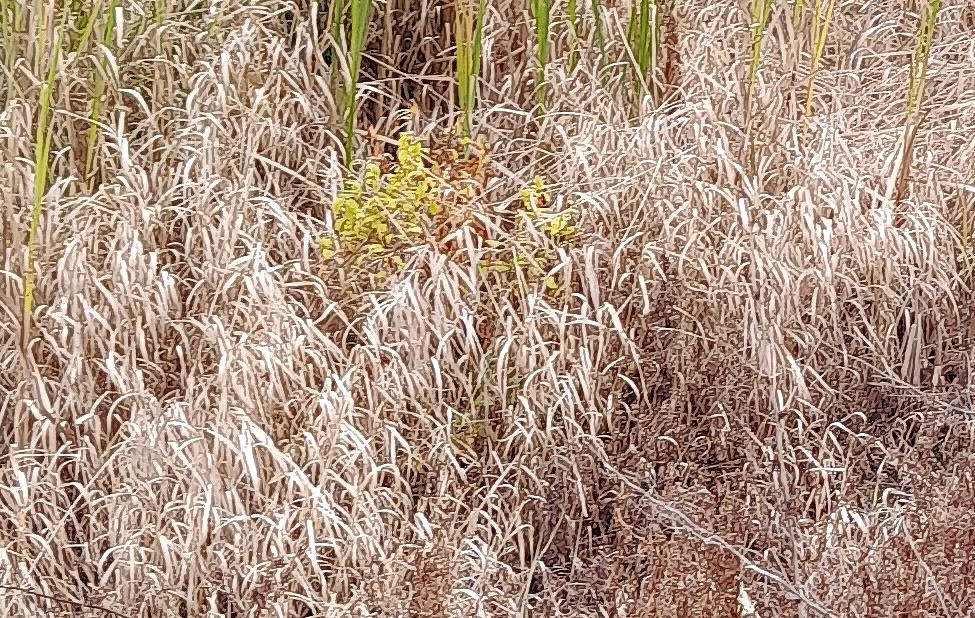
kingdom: Plantae
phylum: Tracheophyta
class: Liliopsida
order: Poales
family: Poaceae
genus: Calamagrostis
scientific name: Calamagrostis canescens
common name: Purple small-reed
